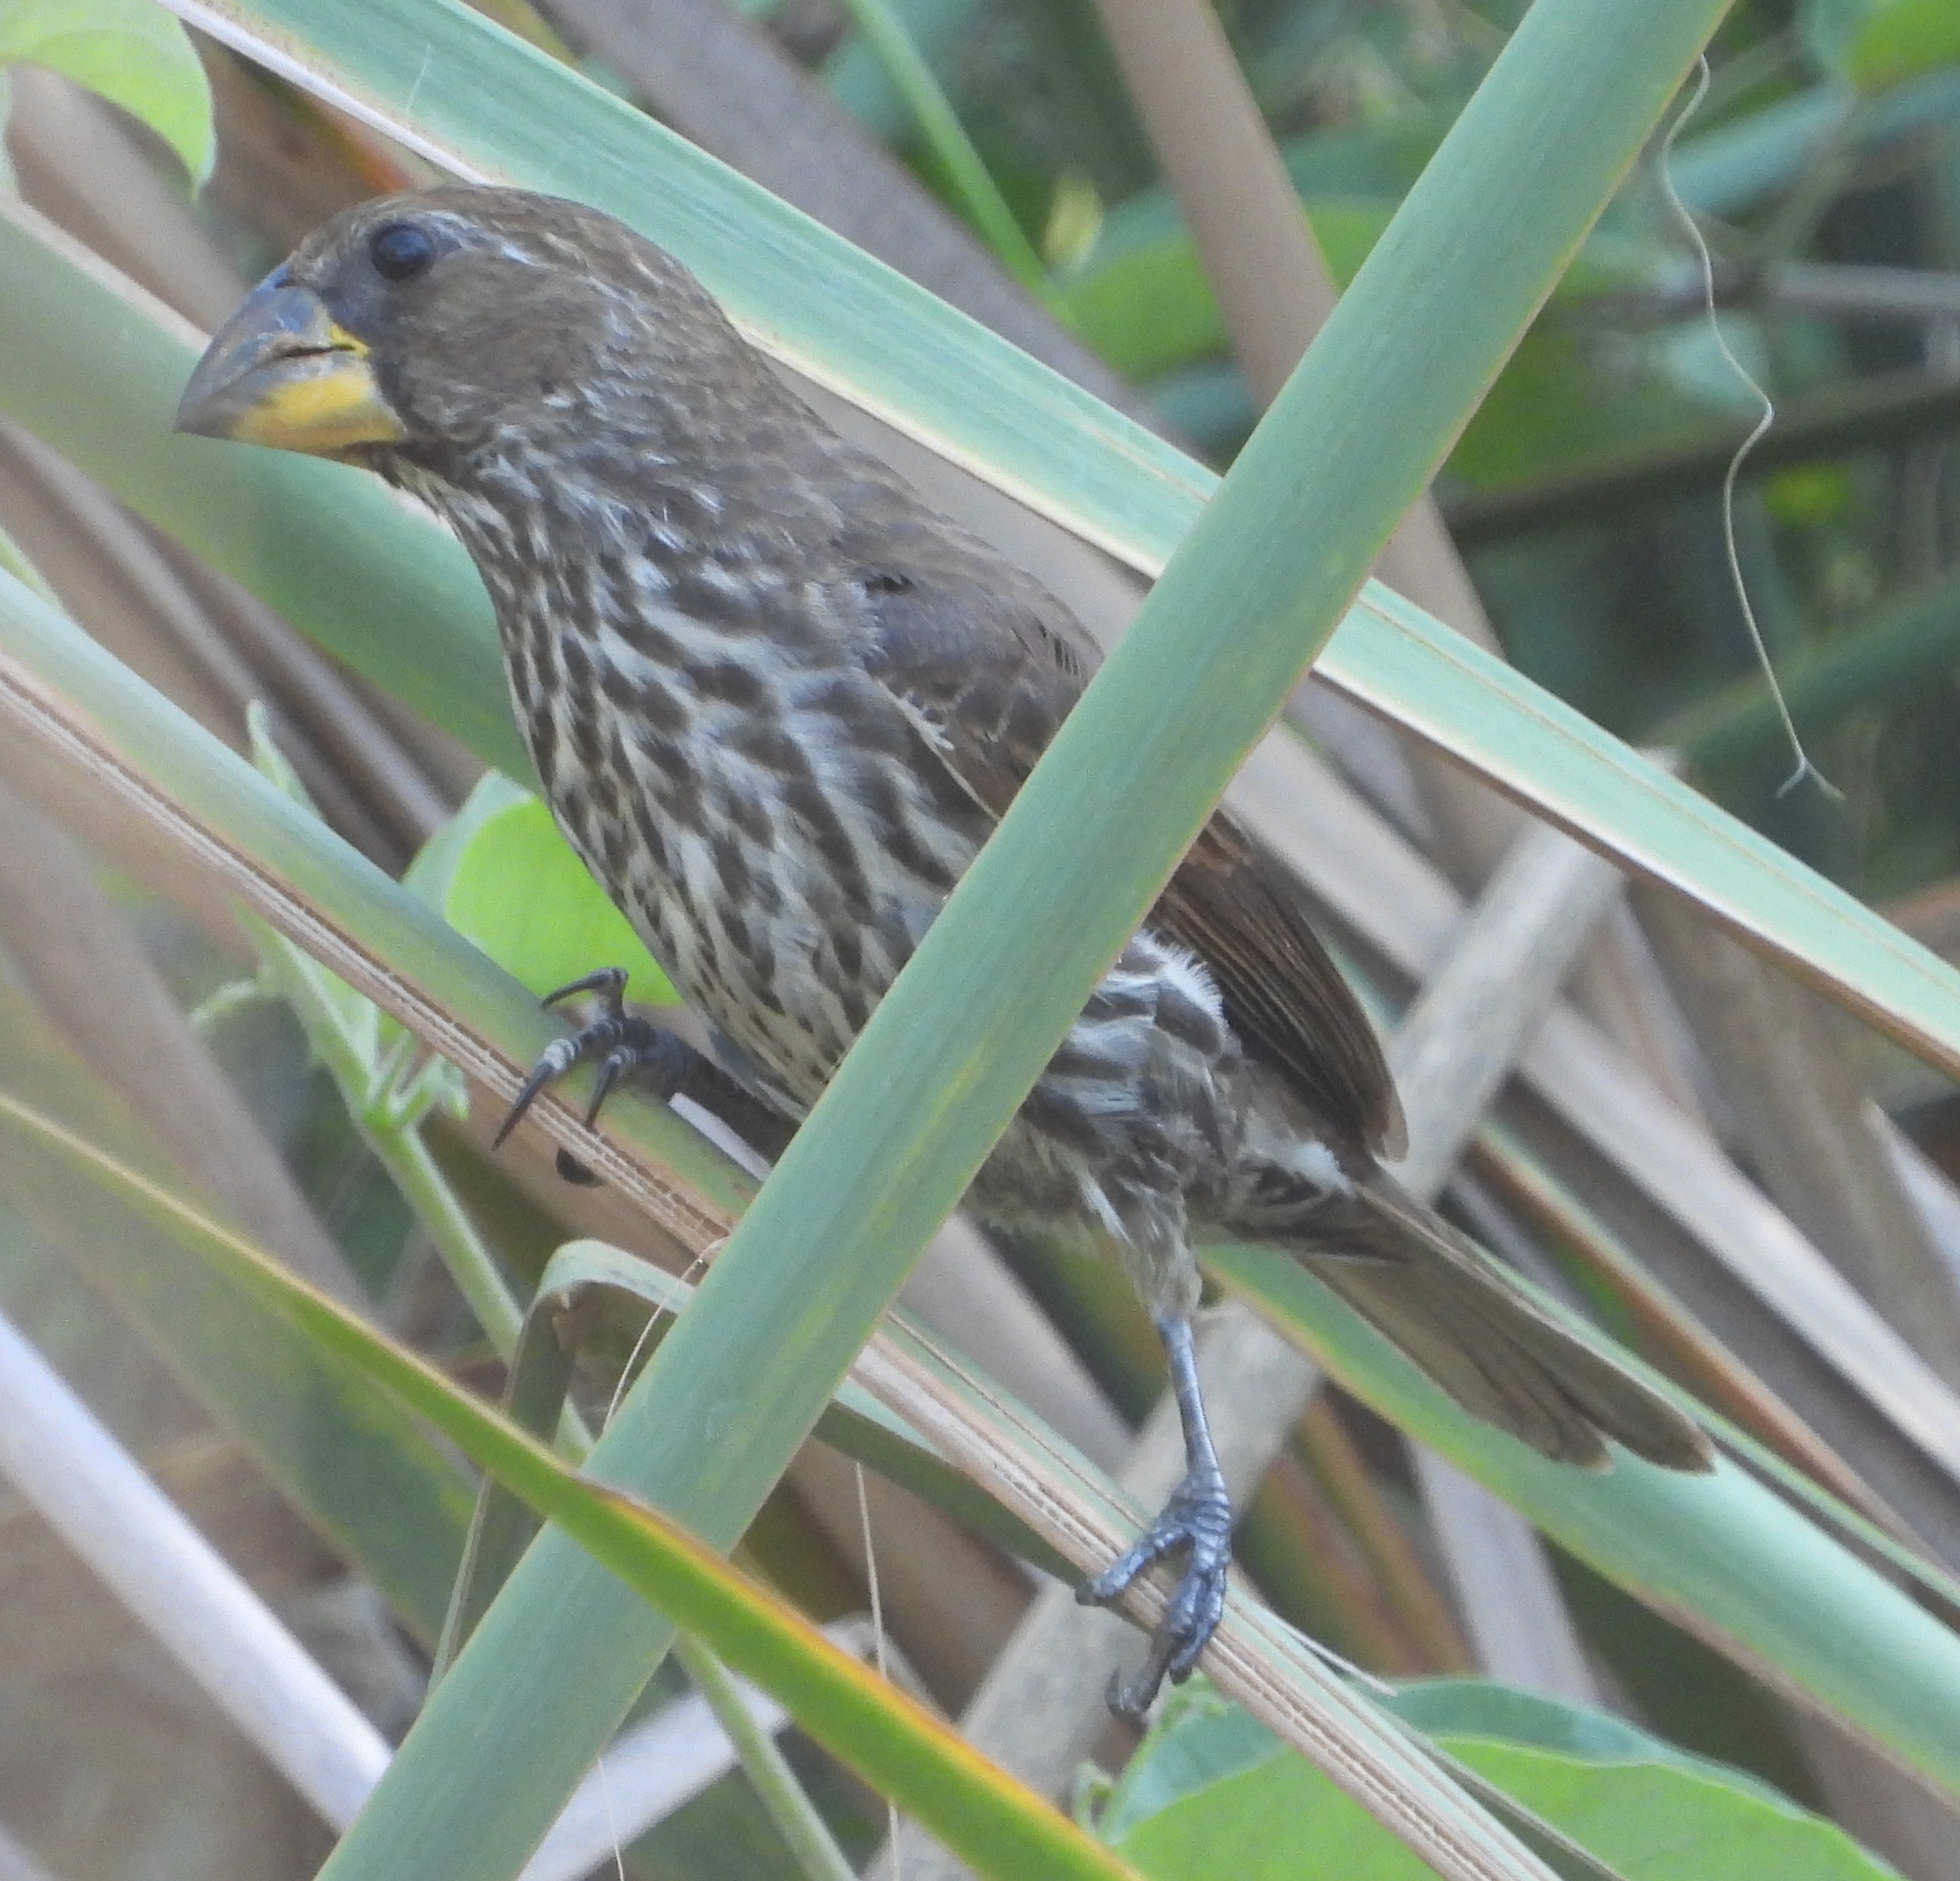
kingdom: Animalia
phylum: Chordata
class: Aves
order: Passeriformes
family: Ploceidae
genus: Amblyospiza
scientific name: Amblyospiza albifrons
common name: Thick-billed weaver
